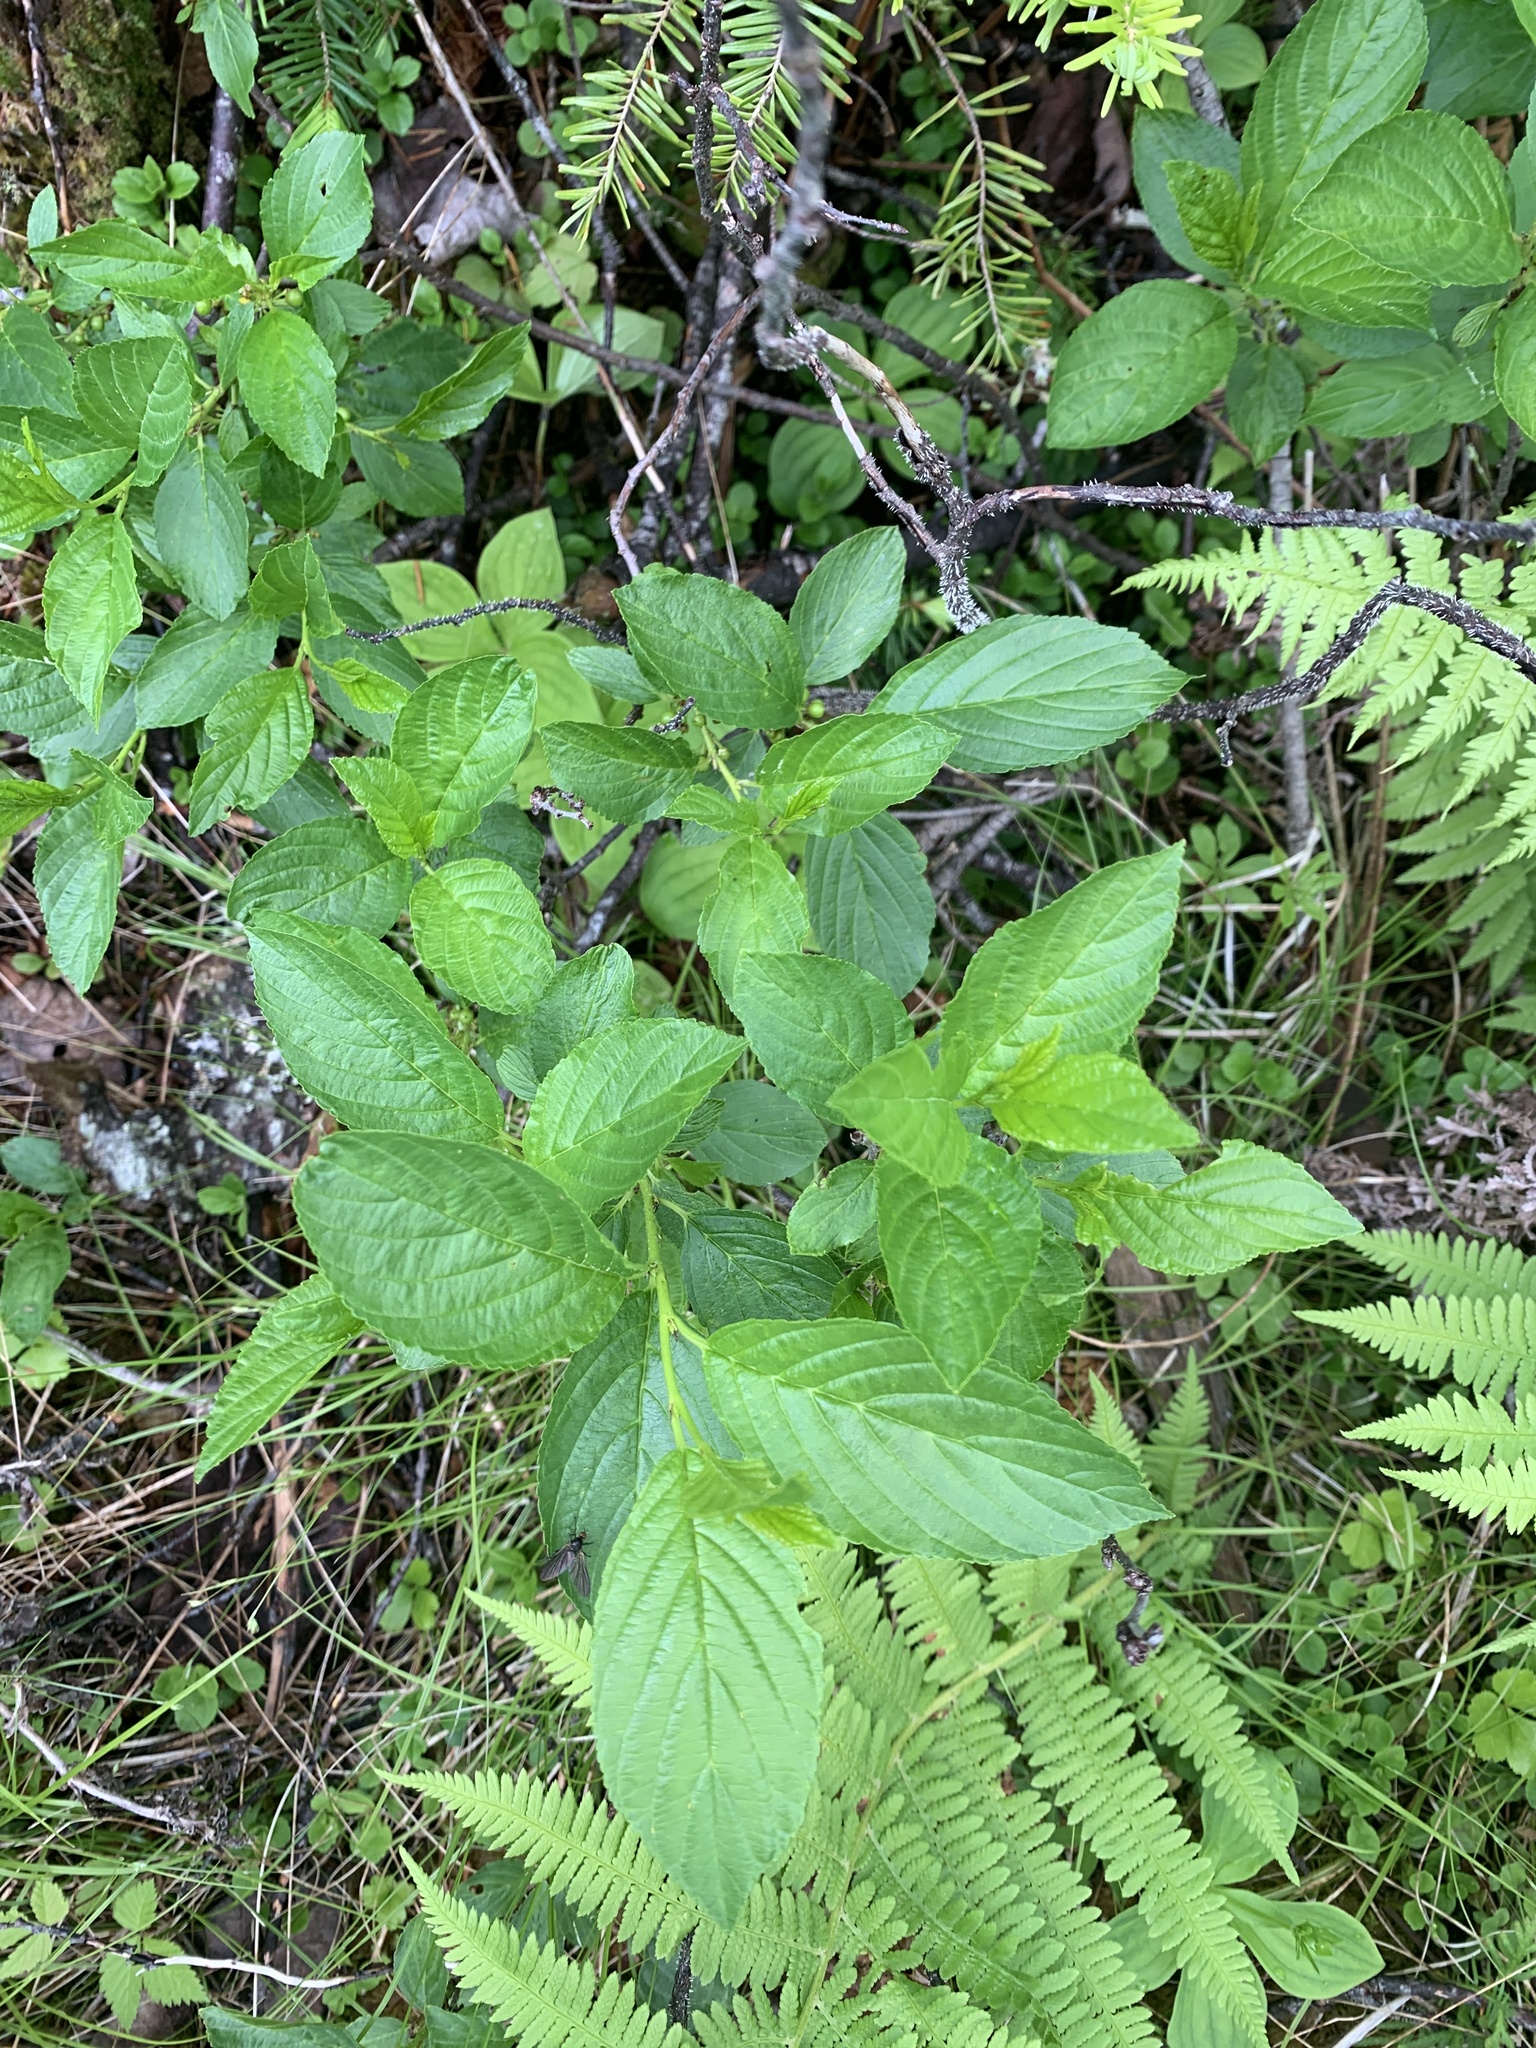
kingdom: Plantae
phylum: Tracheophyta
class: Magnoliopsida
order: Rosales
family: Rhamnaceae
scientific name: Rhamnaceae
